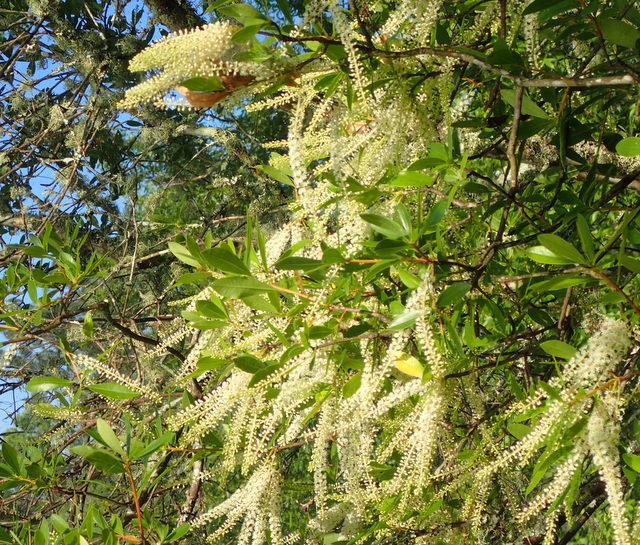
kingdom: Plantae
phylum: Tracheophyta
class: Magnoliopsida
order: Ericales
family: Cyrillaceae
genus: Cyrilla
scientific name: Cyrilla racemiflora
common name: Black titi
